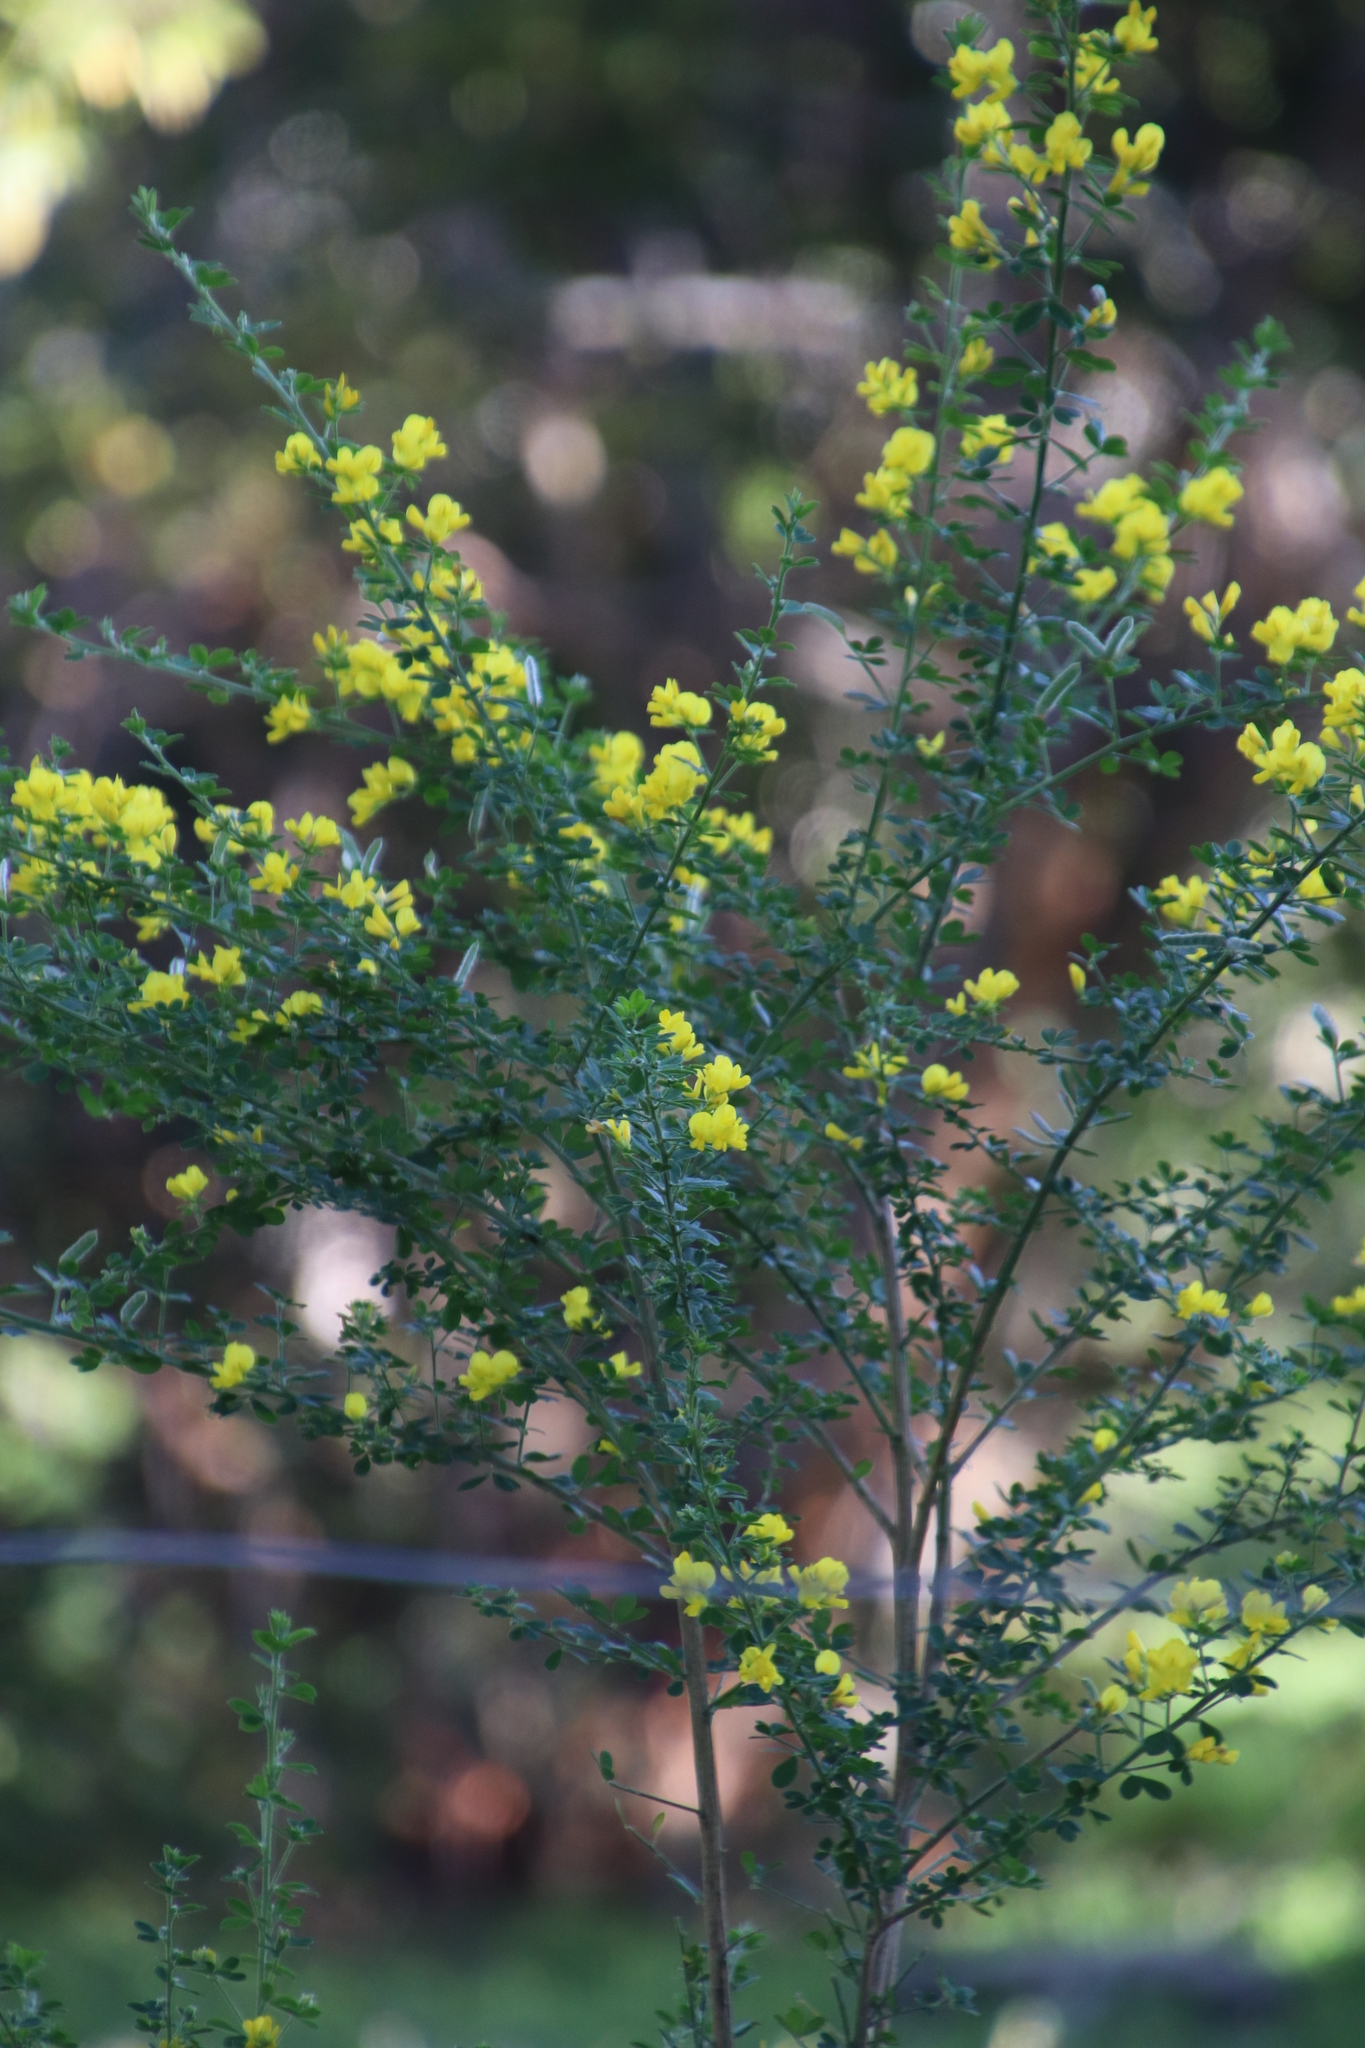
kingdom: Plantae
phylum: Tracheophyta
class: Magnoliopsida
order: Fabales
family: Fabaceae
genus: Genista
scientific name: Genista monspessulana
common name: Montpellier broom
